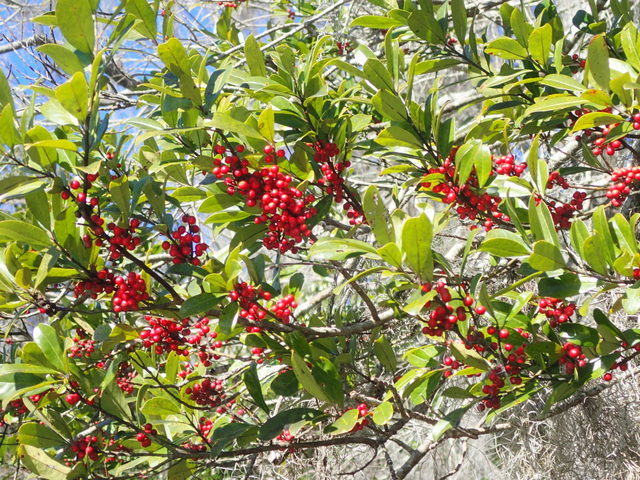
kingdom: Plantae
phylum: Tracheophyta
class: Magnoliopsida
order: Aquifoliales
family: Aquifoliaceae
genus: Ilex
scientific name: Ilex cassine
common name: Dahoon
